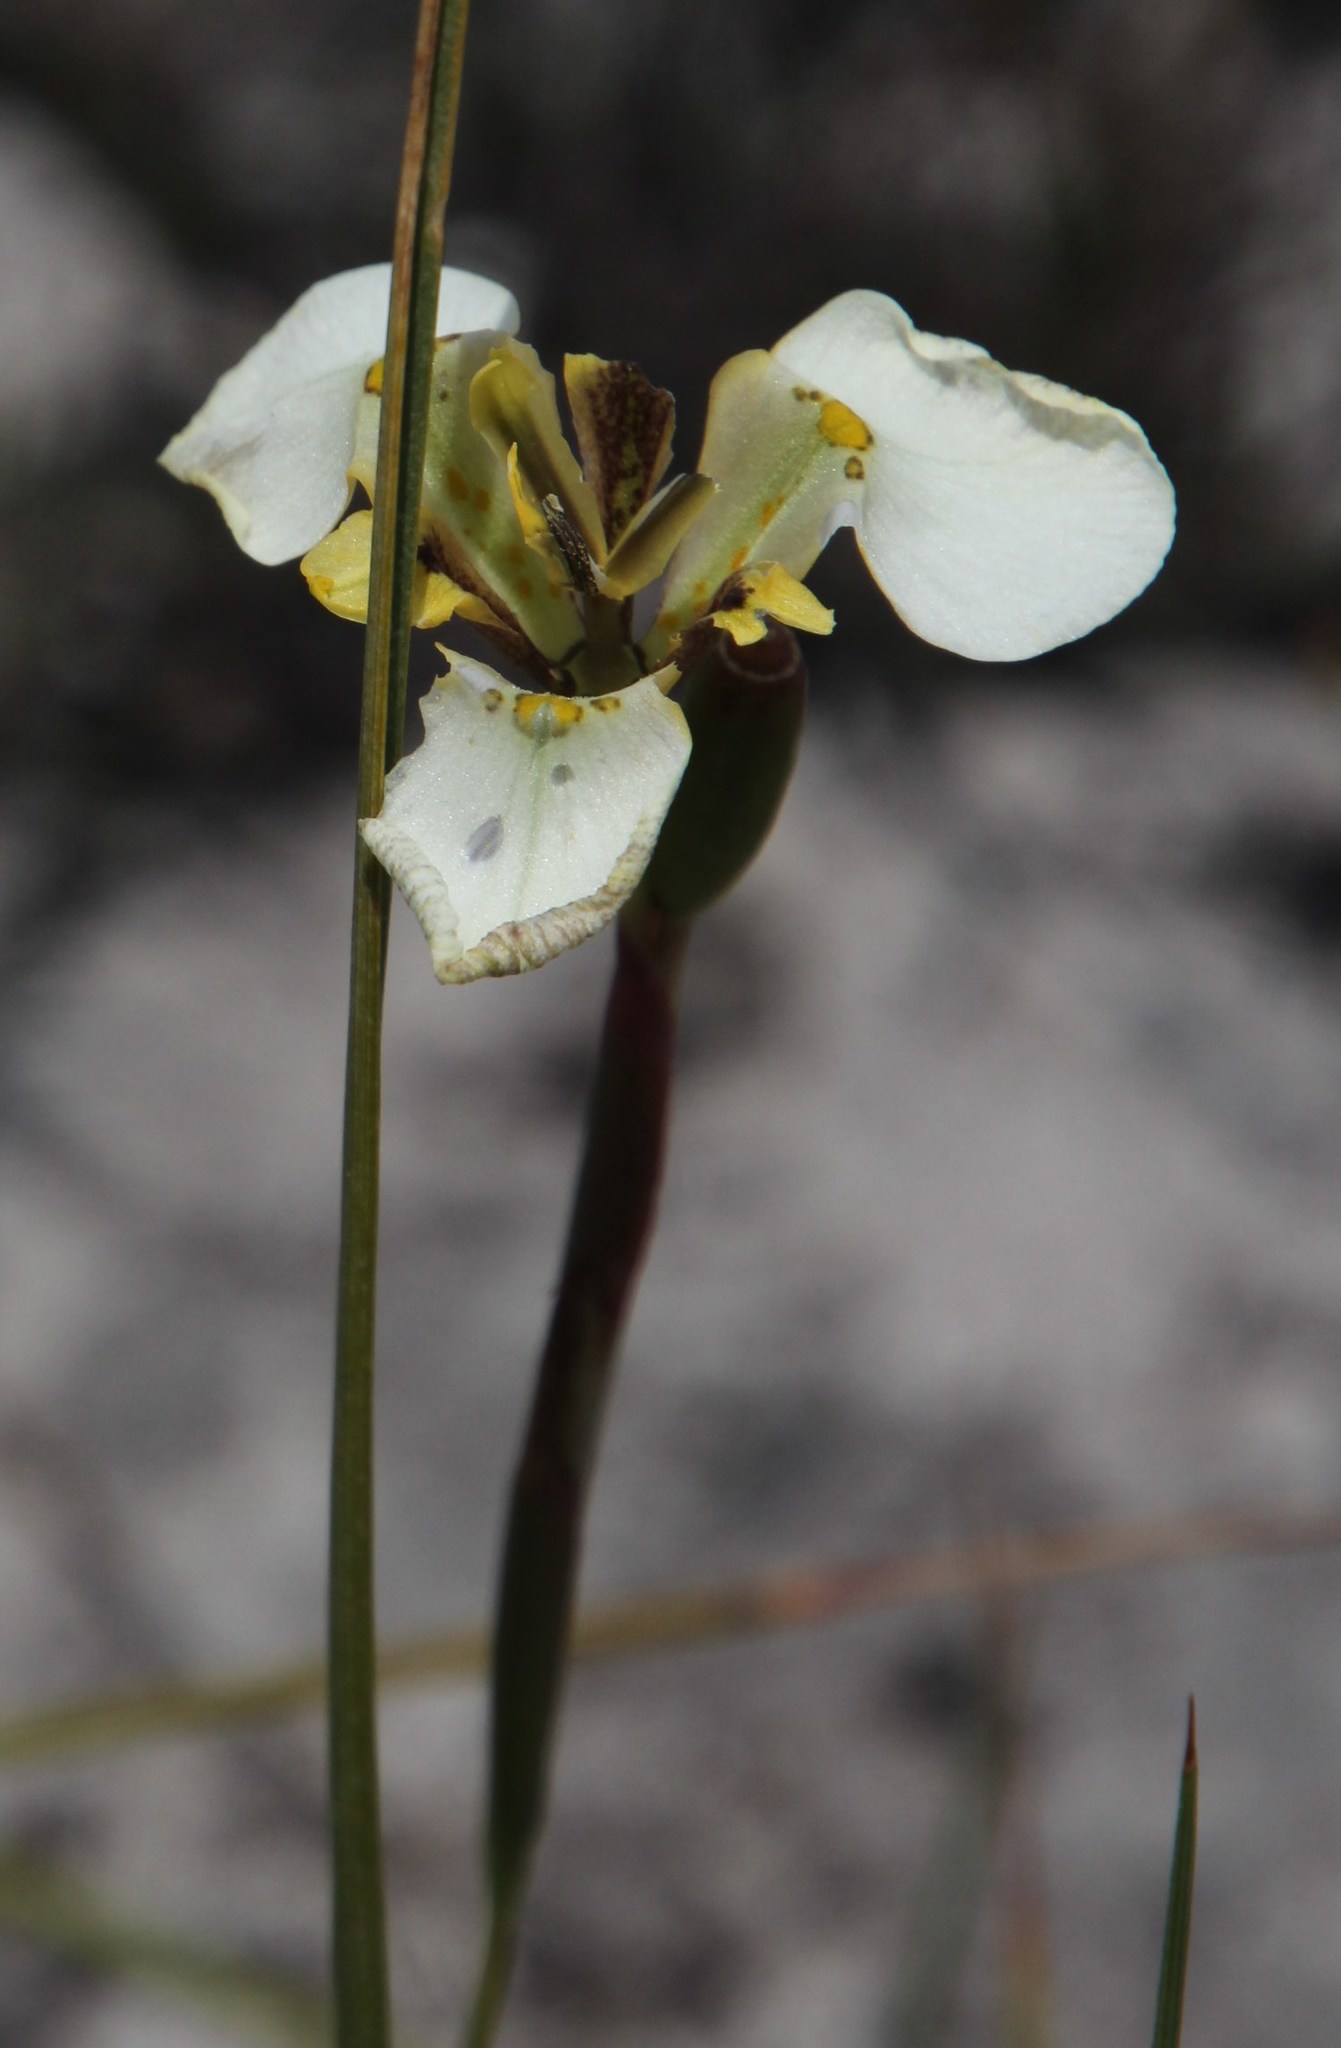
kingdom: Plantae
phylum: Tracheophyta
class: Liliopsida
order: Asparagales
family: Iridaceae
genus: Moraea
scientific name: Moraea lurida
